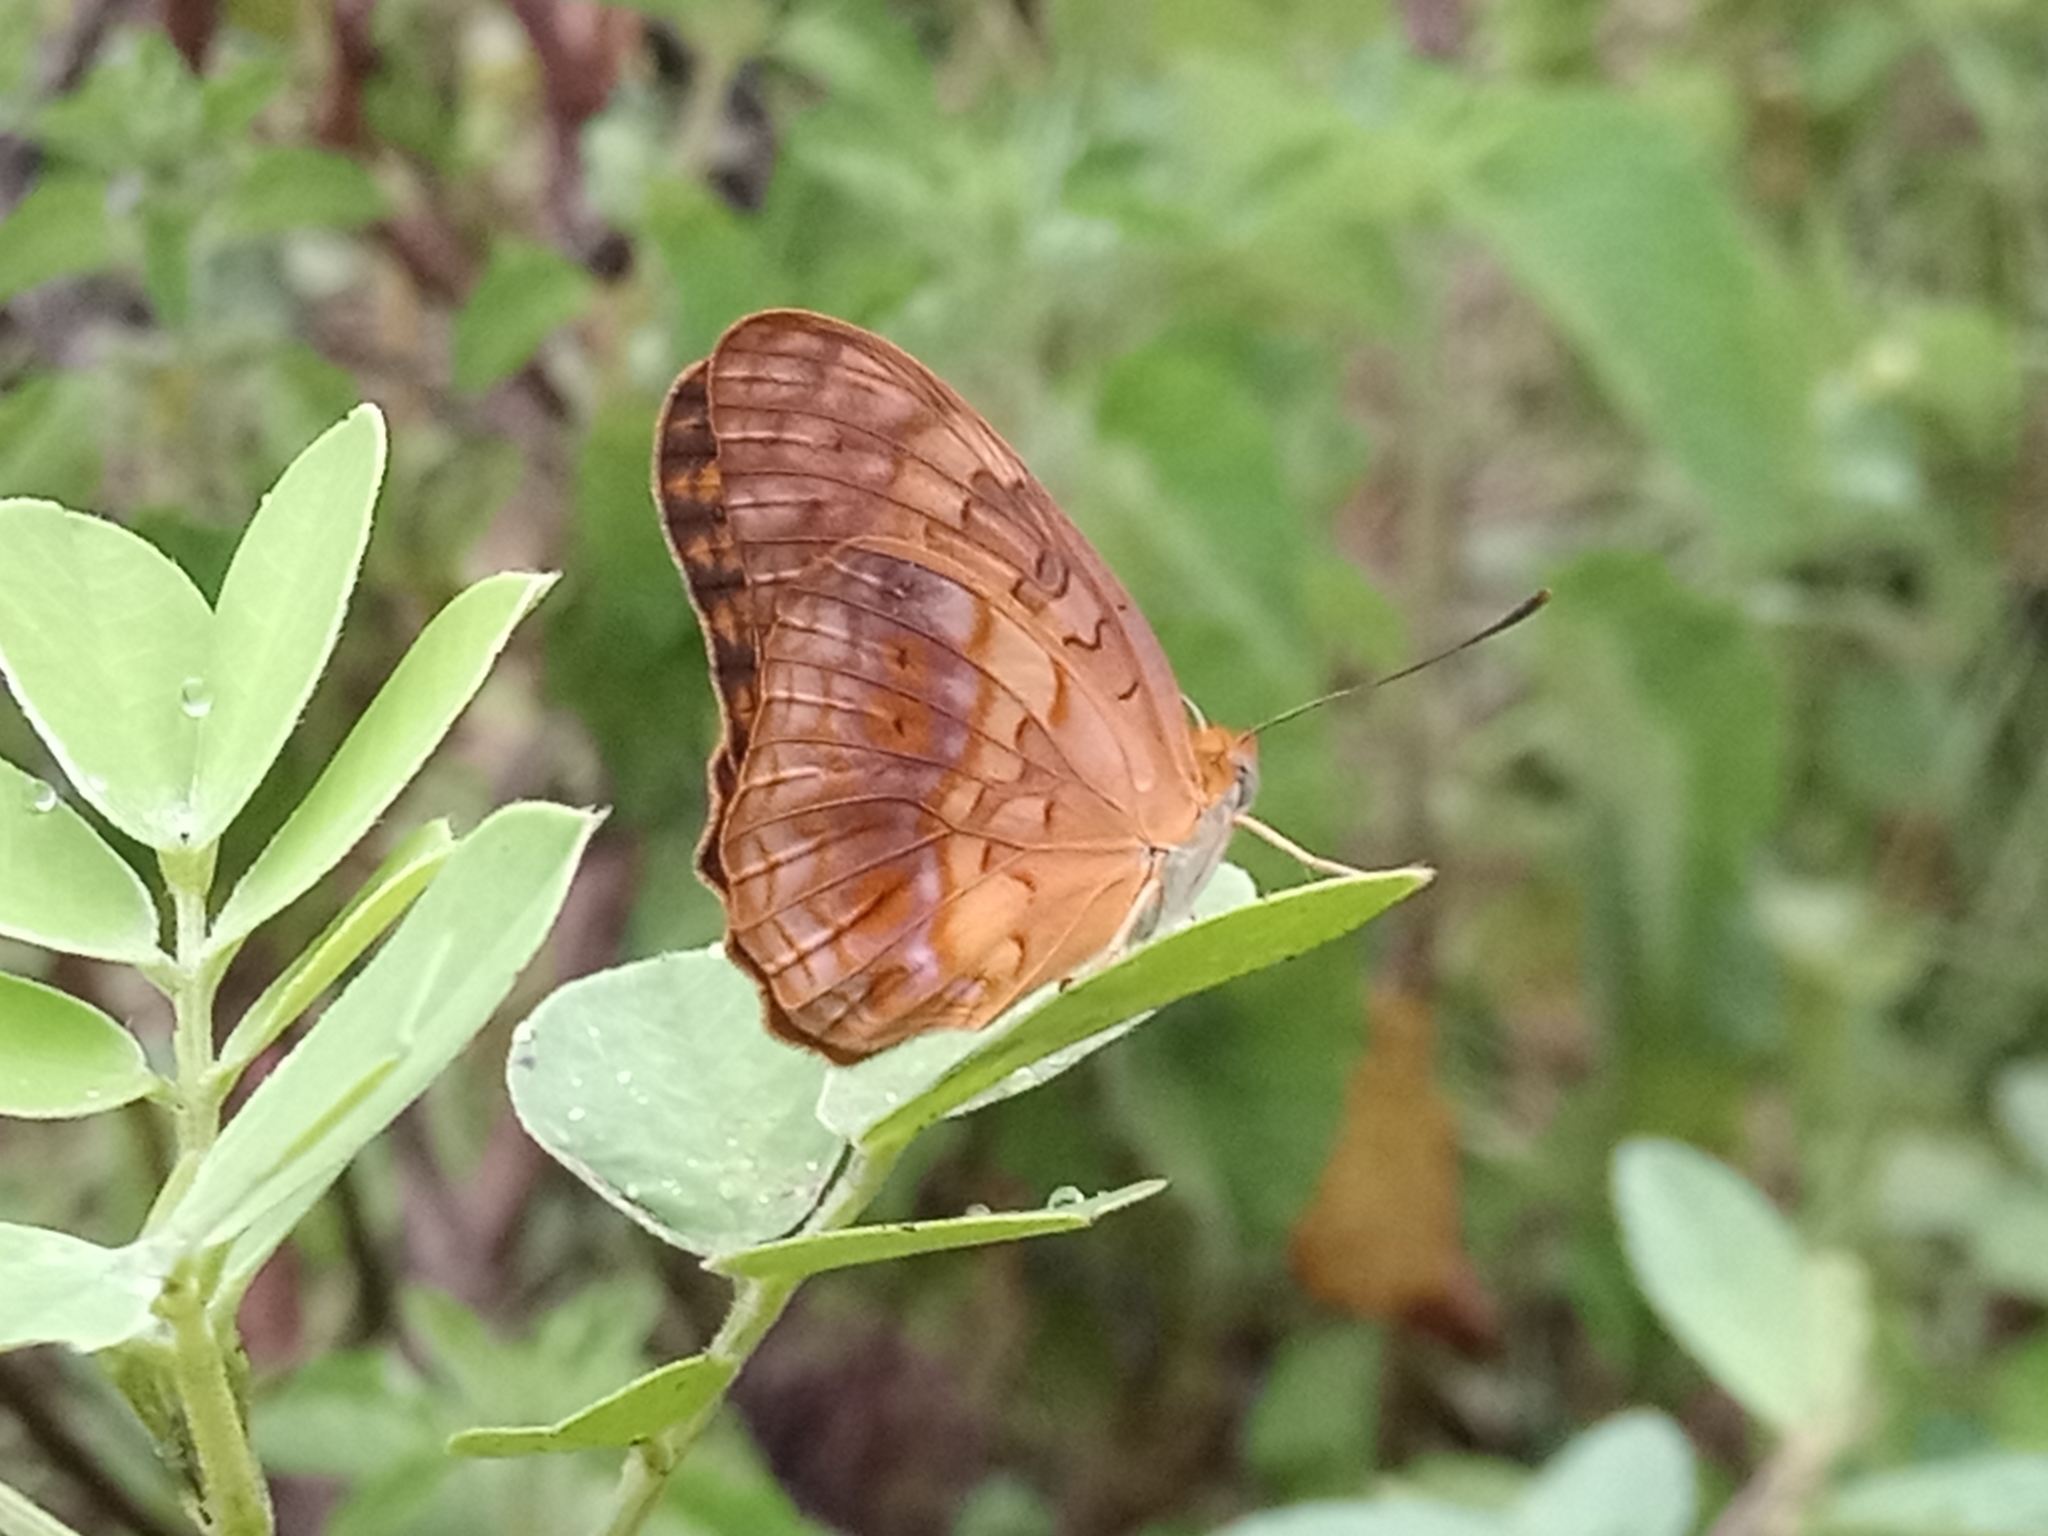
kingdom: Animalia
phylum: Arthropoda
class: Insecta
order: Lepidoptera
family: Nymphalidae
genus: Phalanta
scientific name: Phalanta phalantha
